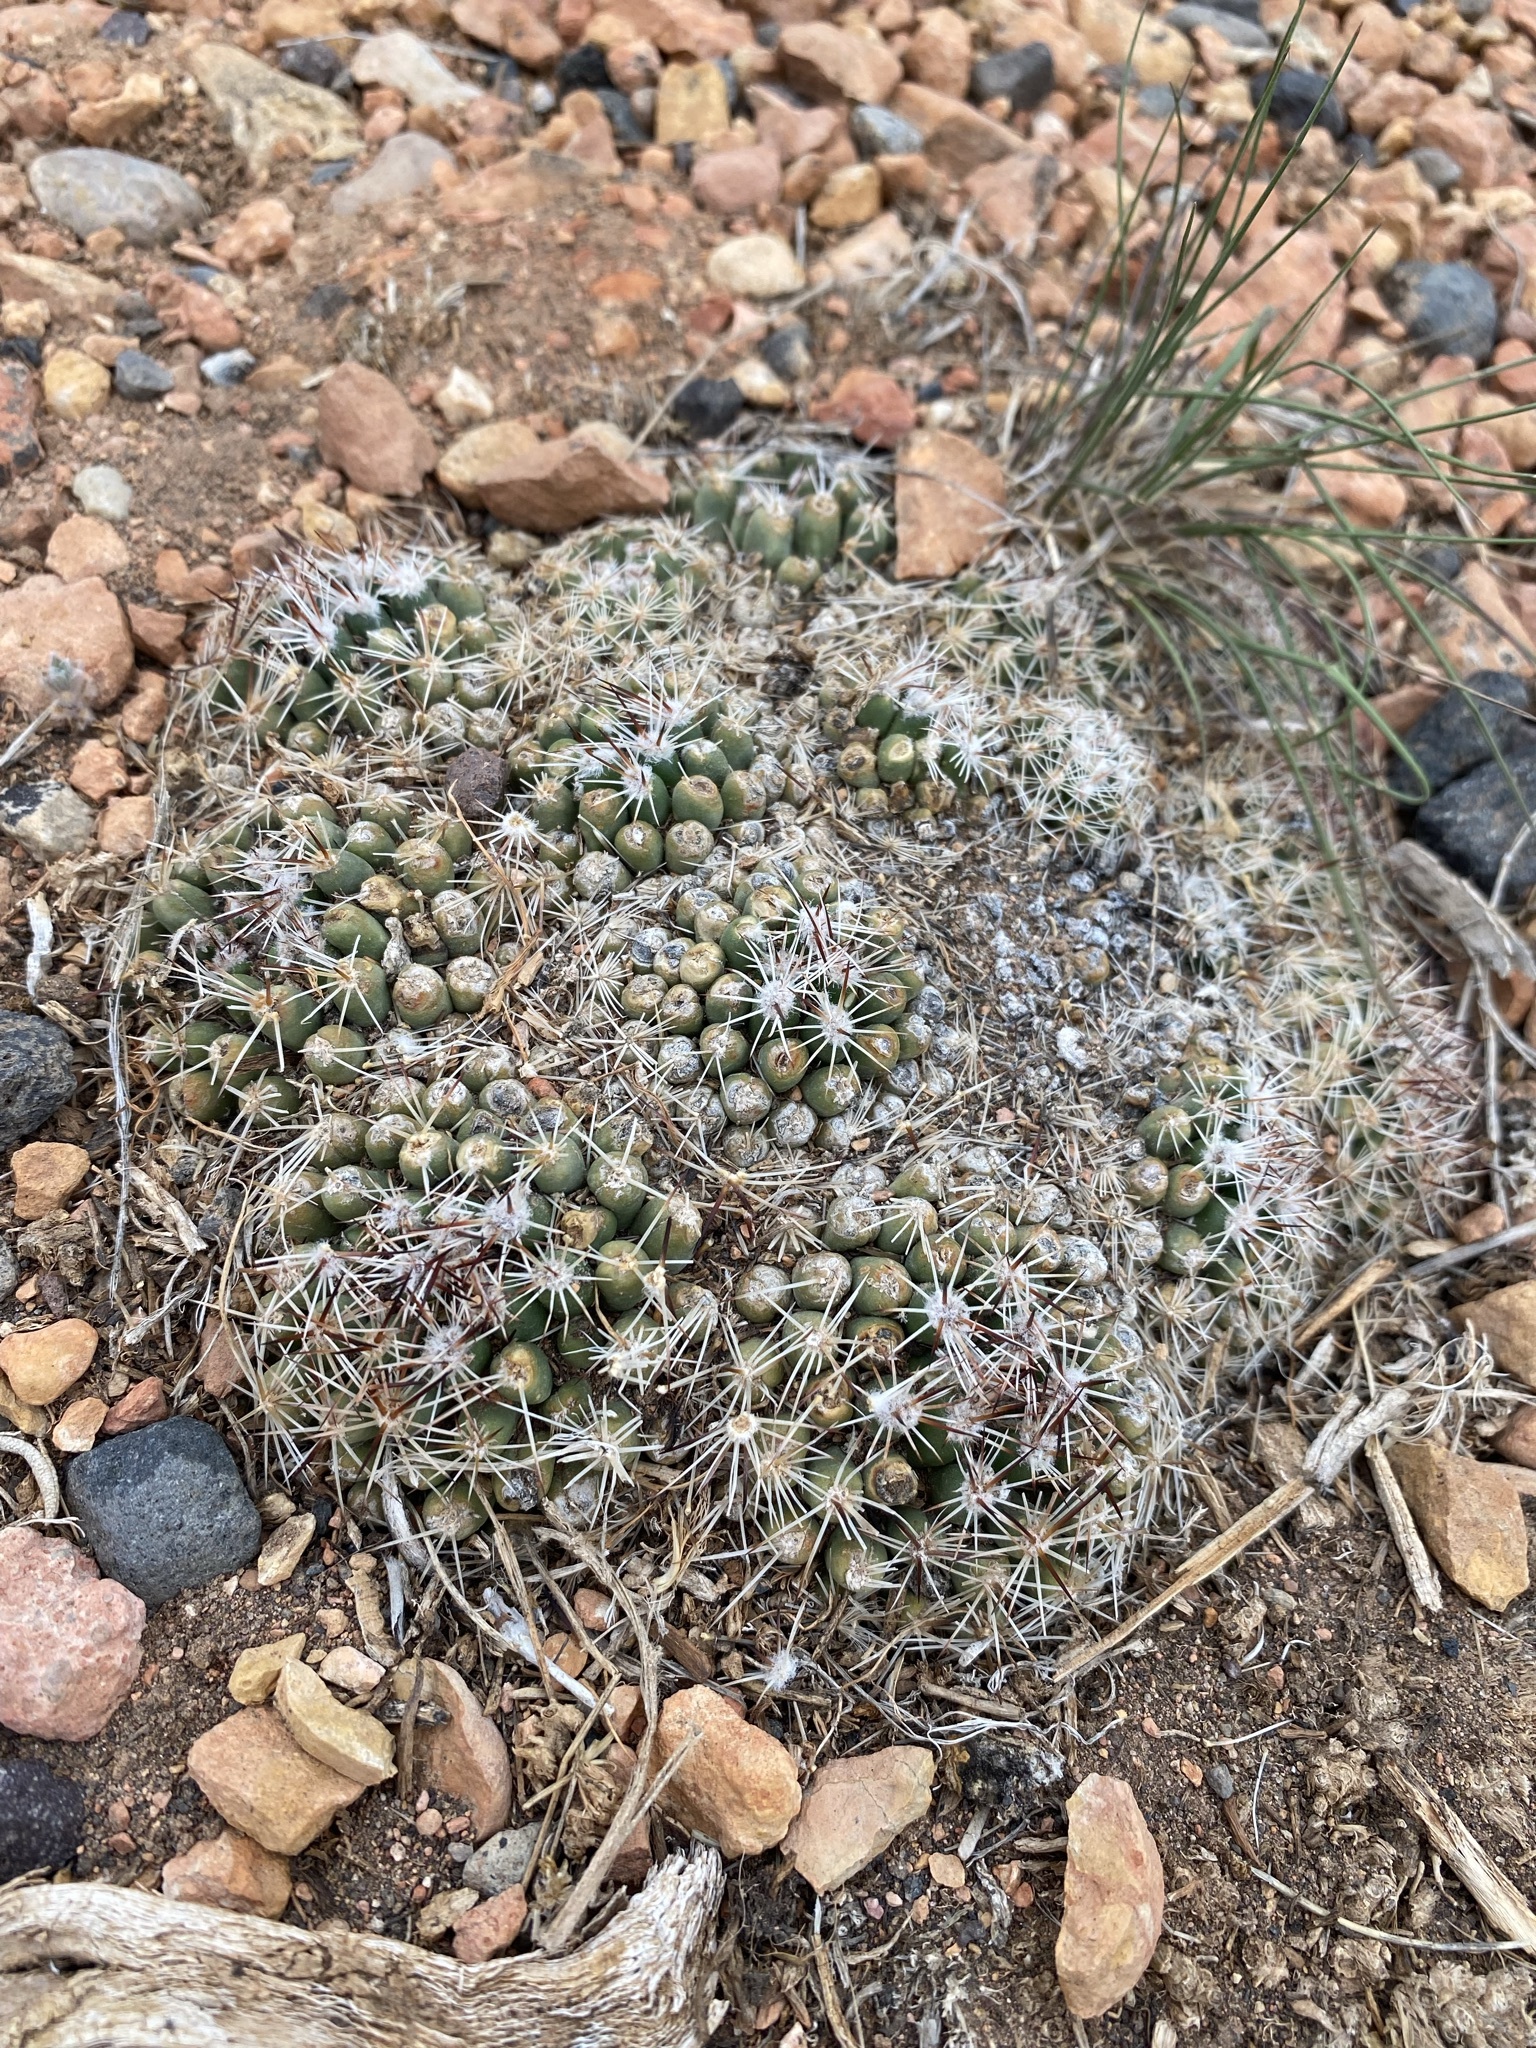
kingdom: Plantae
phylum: Tracheophyta
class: Magnoliopsida
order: Caryophyllales
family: Cactaceae
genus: Pelecyphora
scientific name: Pelecyphora vivipara
